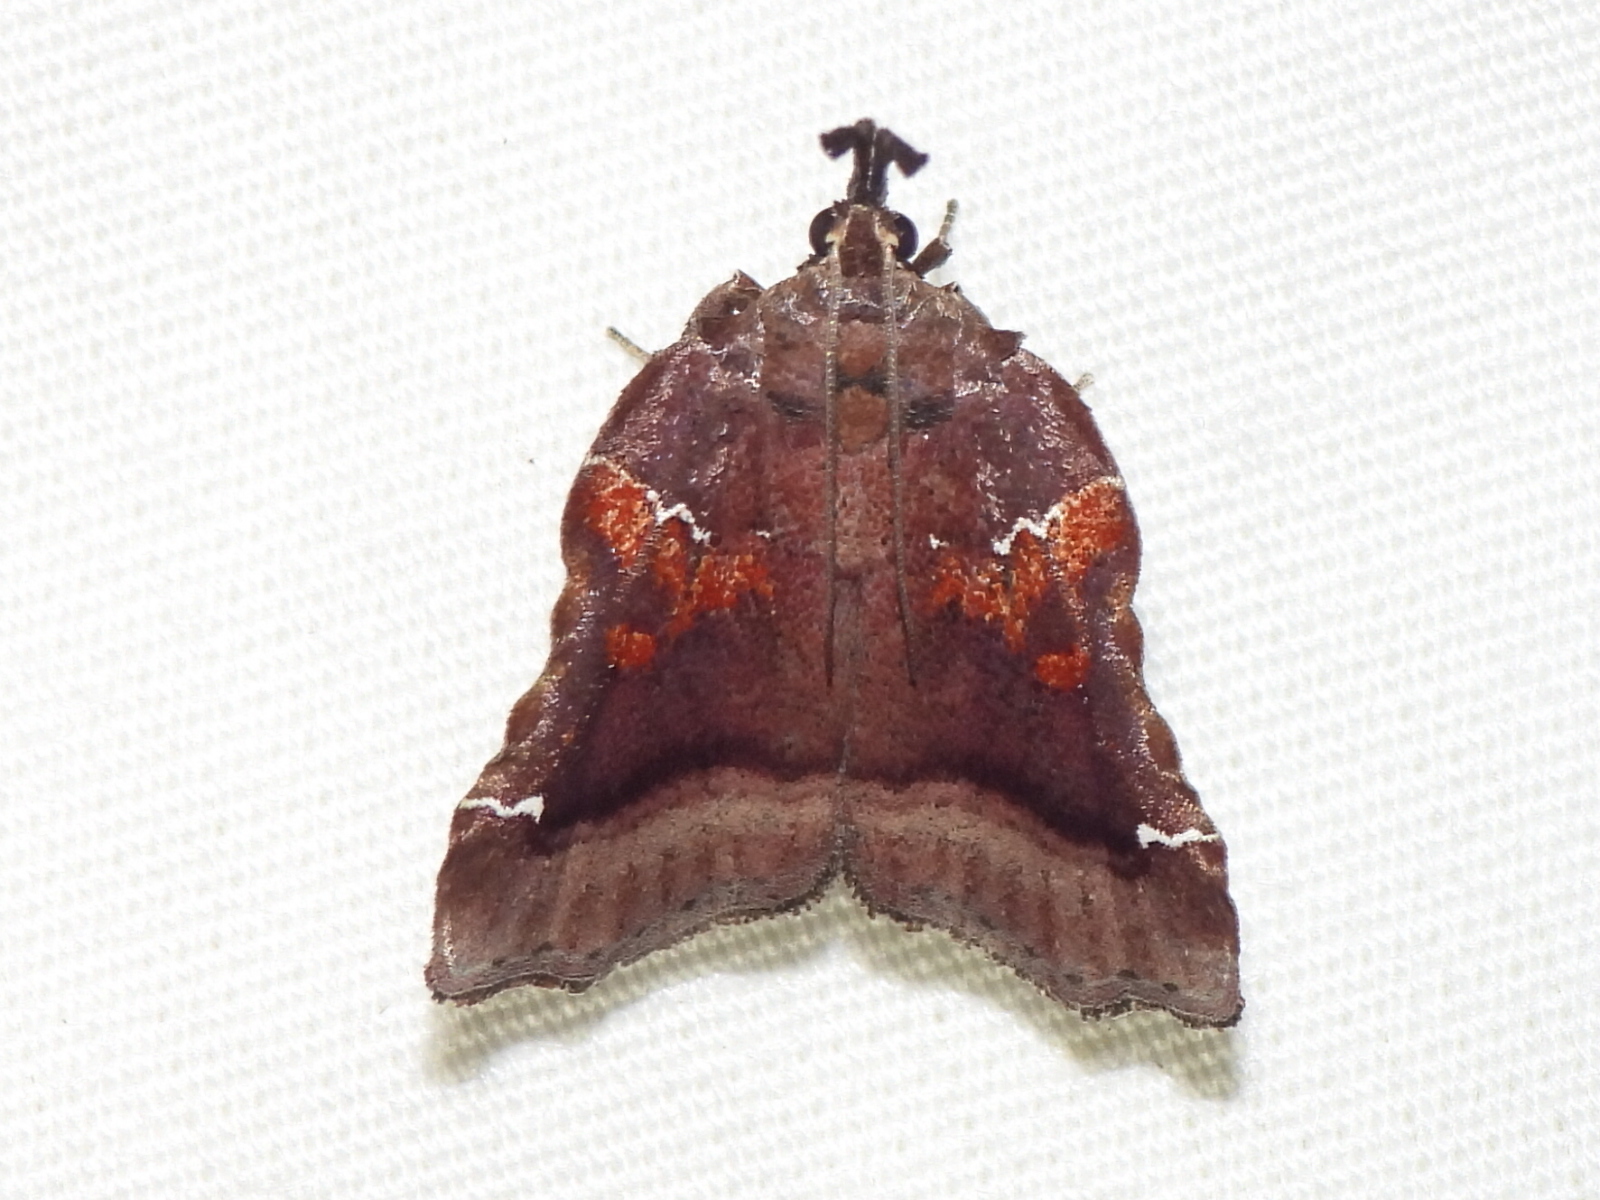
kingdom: Animalia
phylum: Arthropoda
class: Insecta
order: Lepidoptera
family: Pyralidae
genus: Clydonopteron
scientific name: Clydonopteron sacculana
